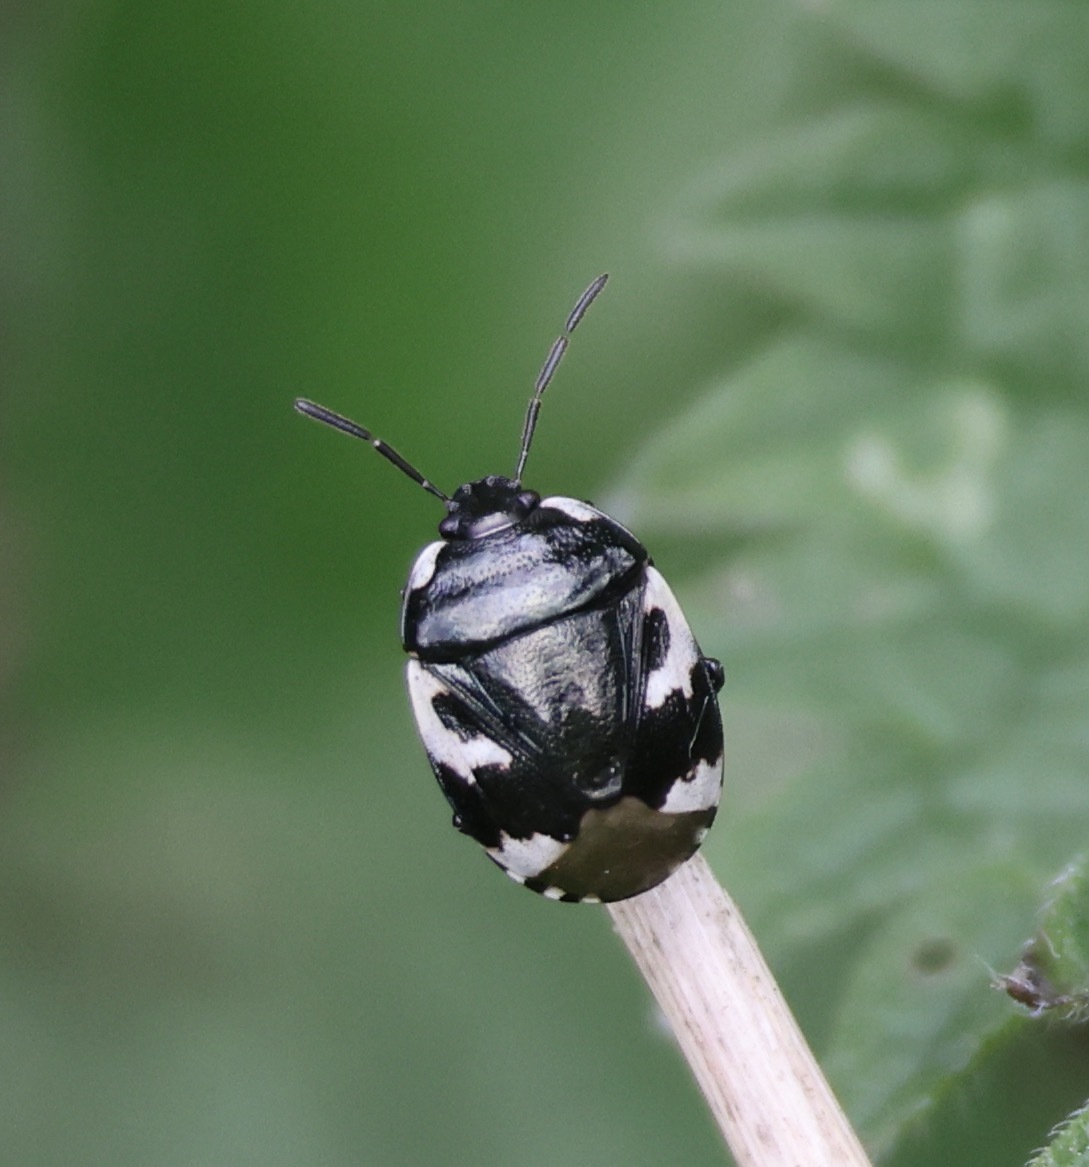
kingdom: Animalia
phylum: Arthropoda
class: Insecta
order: Hemiptera
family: Cydnidae
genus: Tritomegas
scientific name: Tritomegas bicolor
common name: Pied shieldbug
